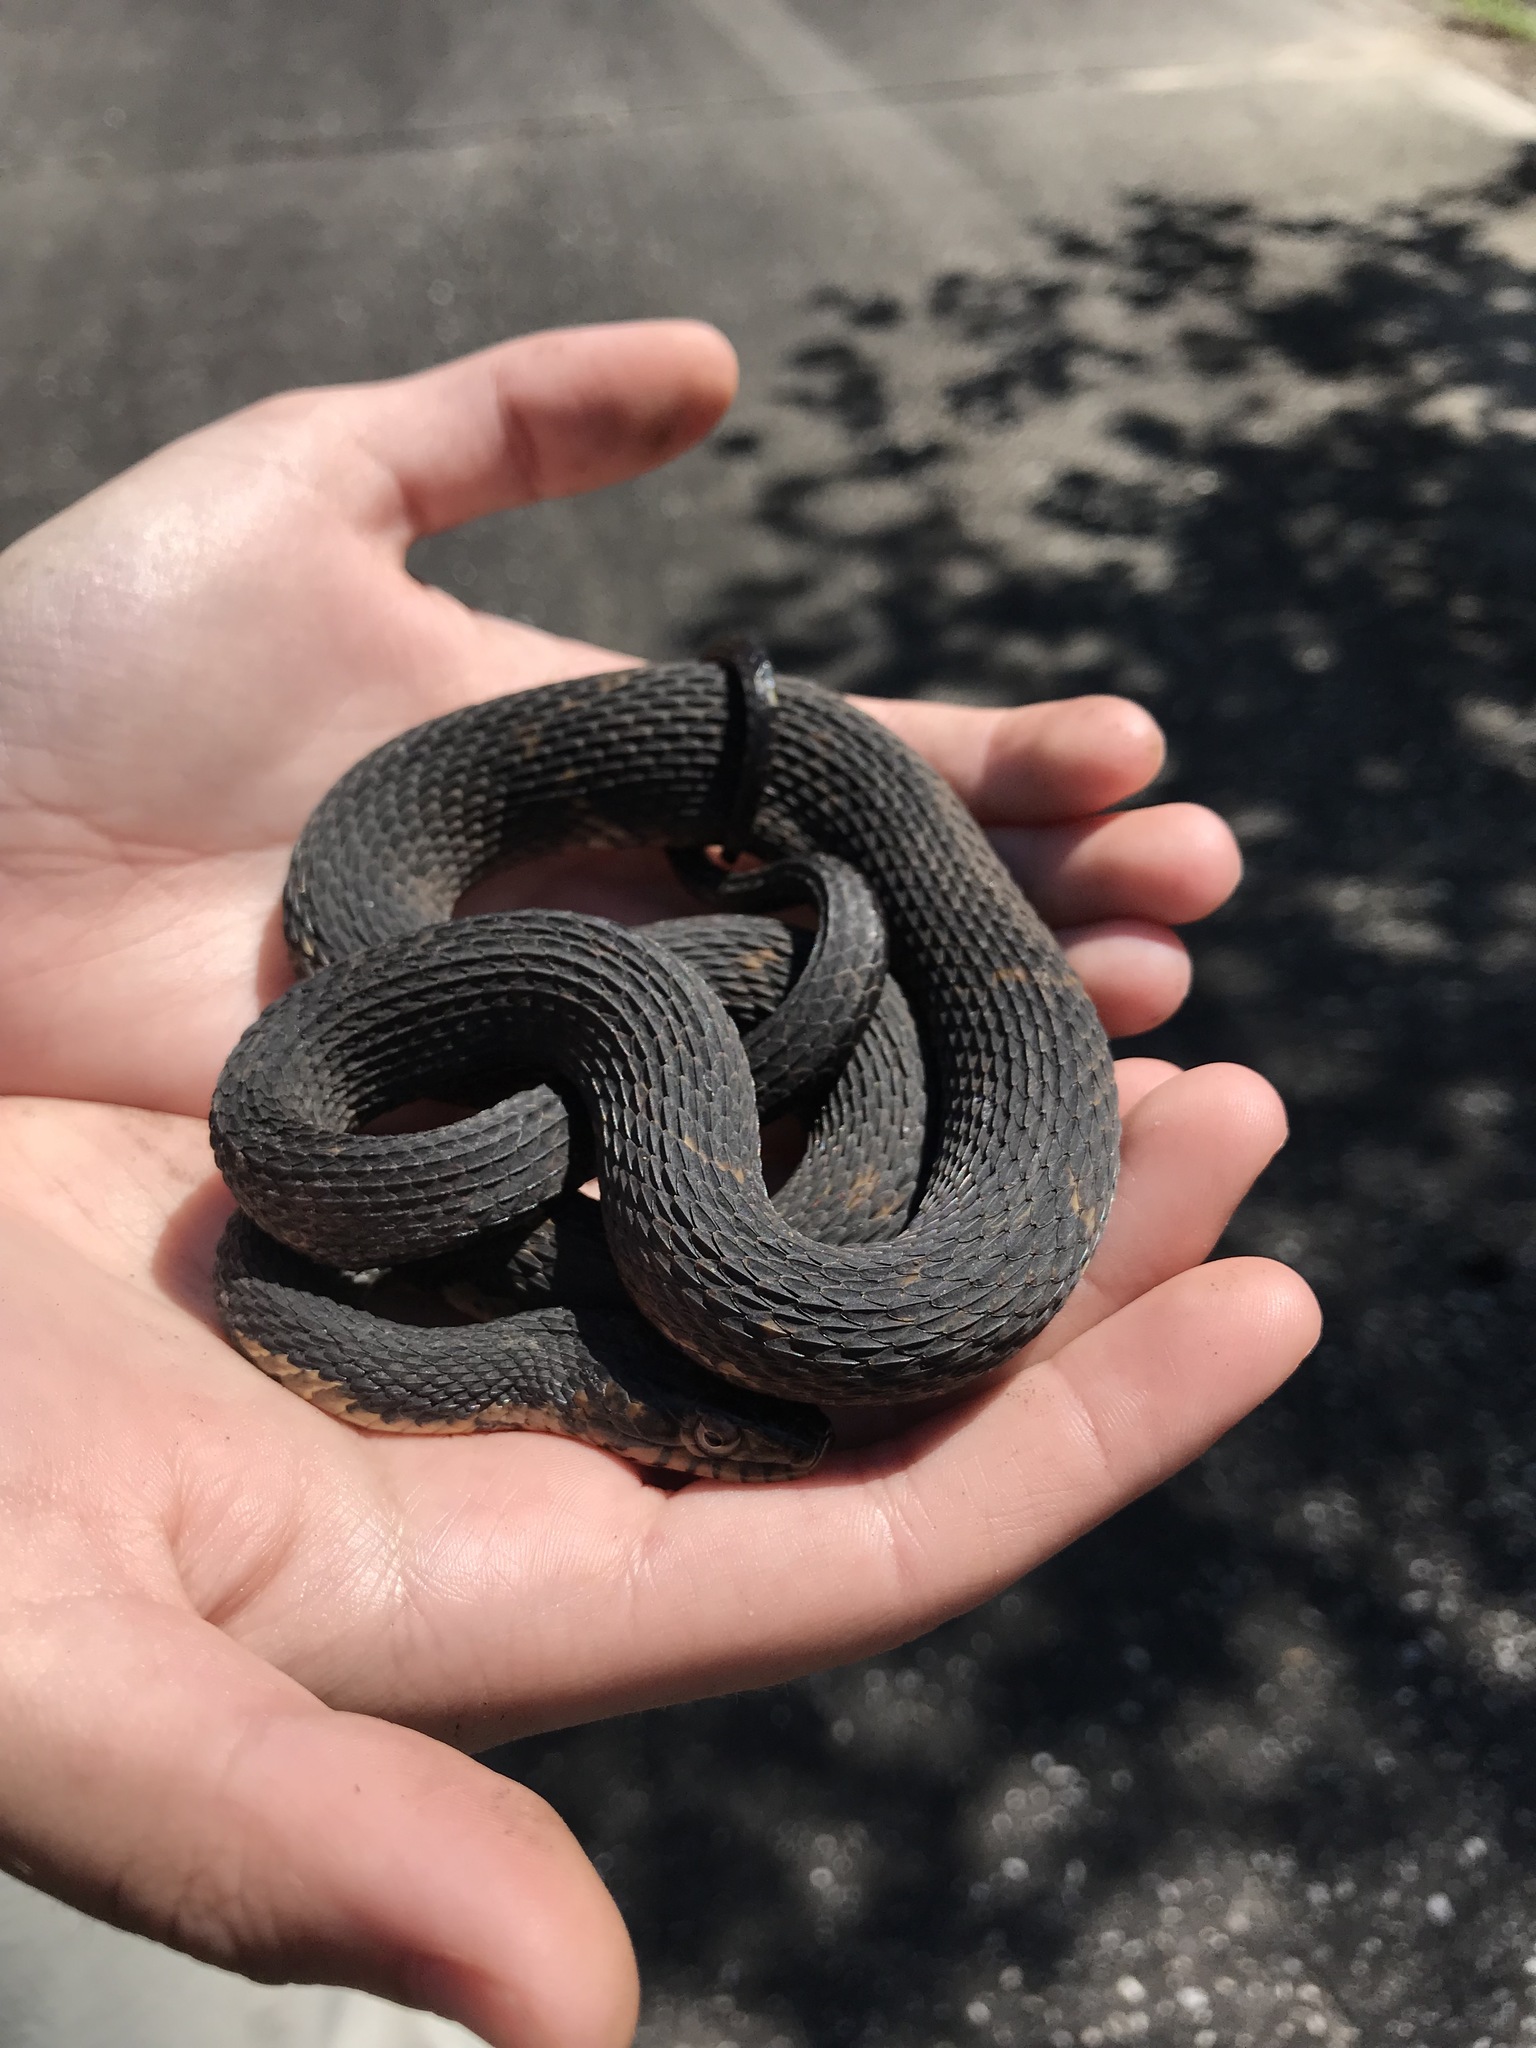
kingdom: Animalia
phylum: Chordata
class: Squamata
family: Colubridae
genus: Nerodia
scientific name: Nerodia fasciata
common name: Southern water snake
